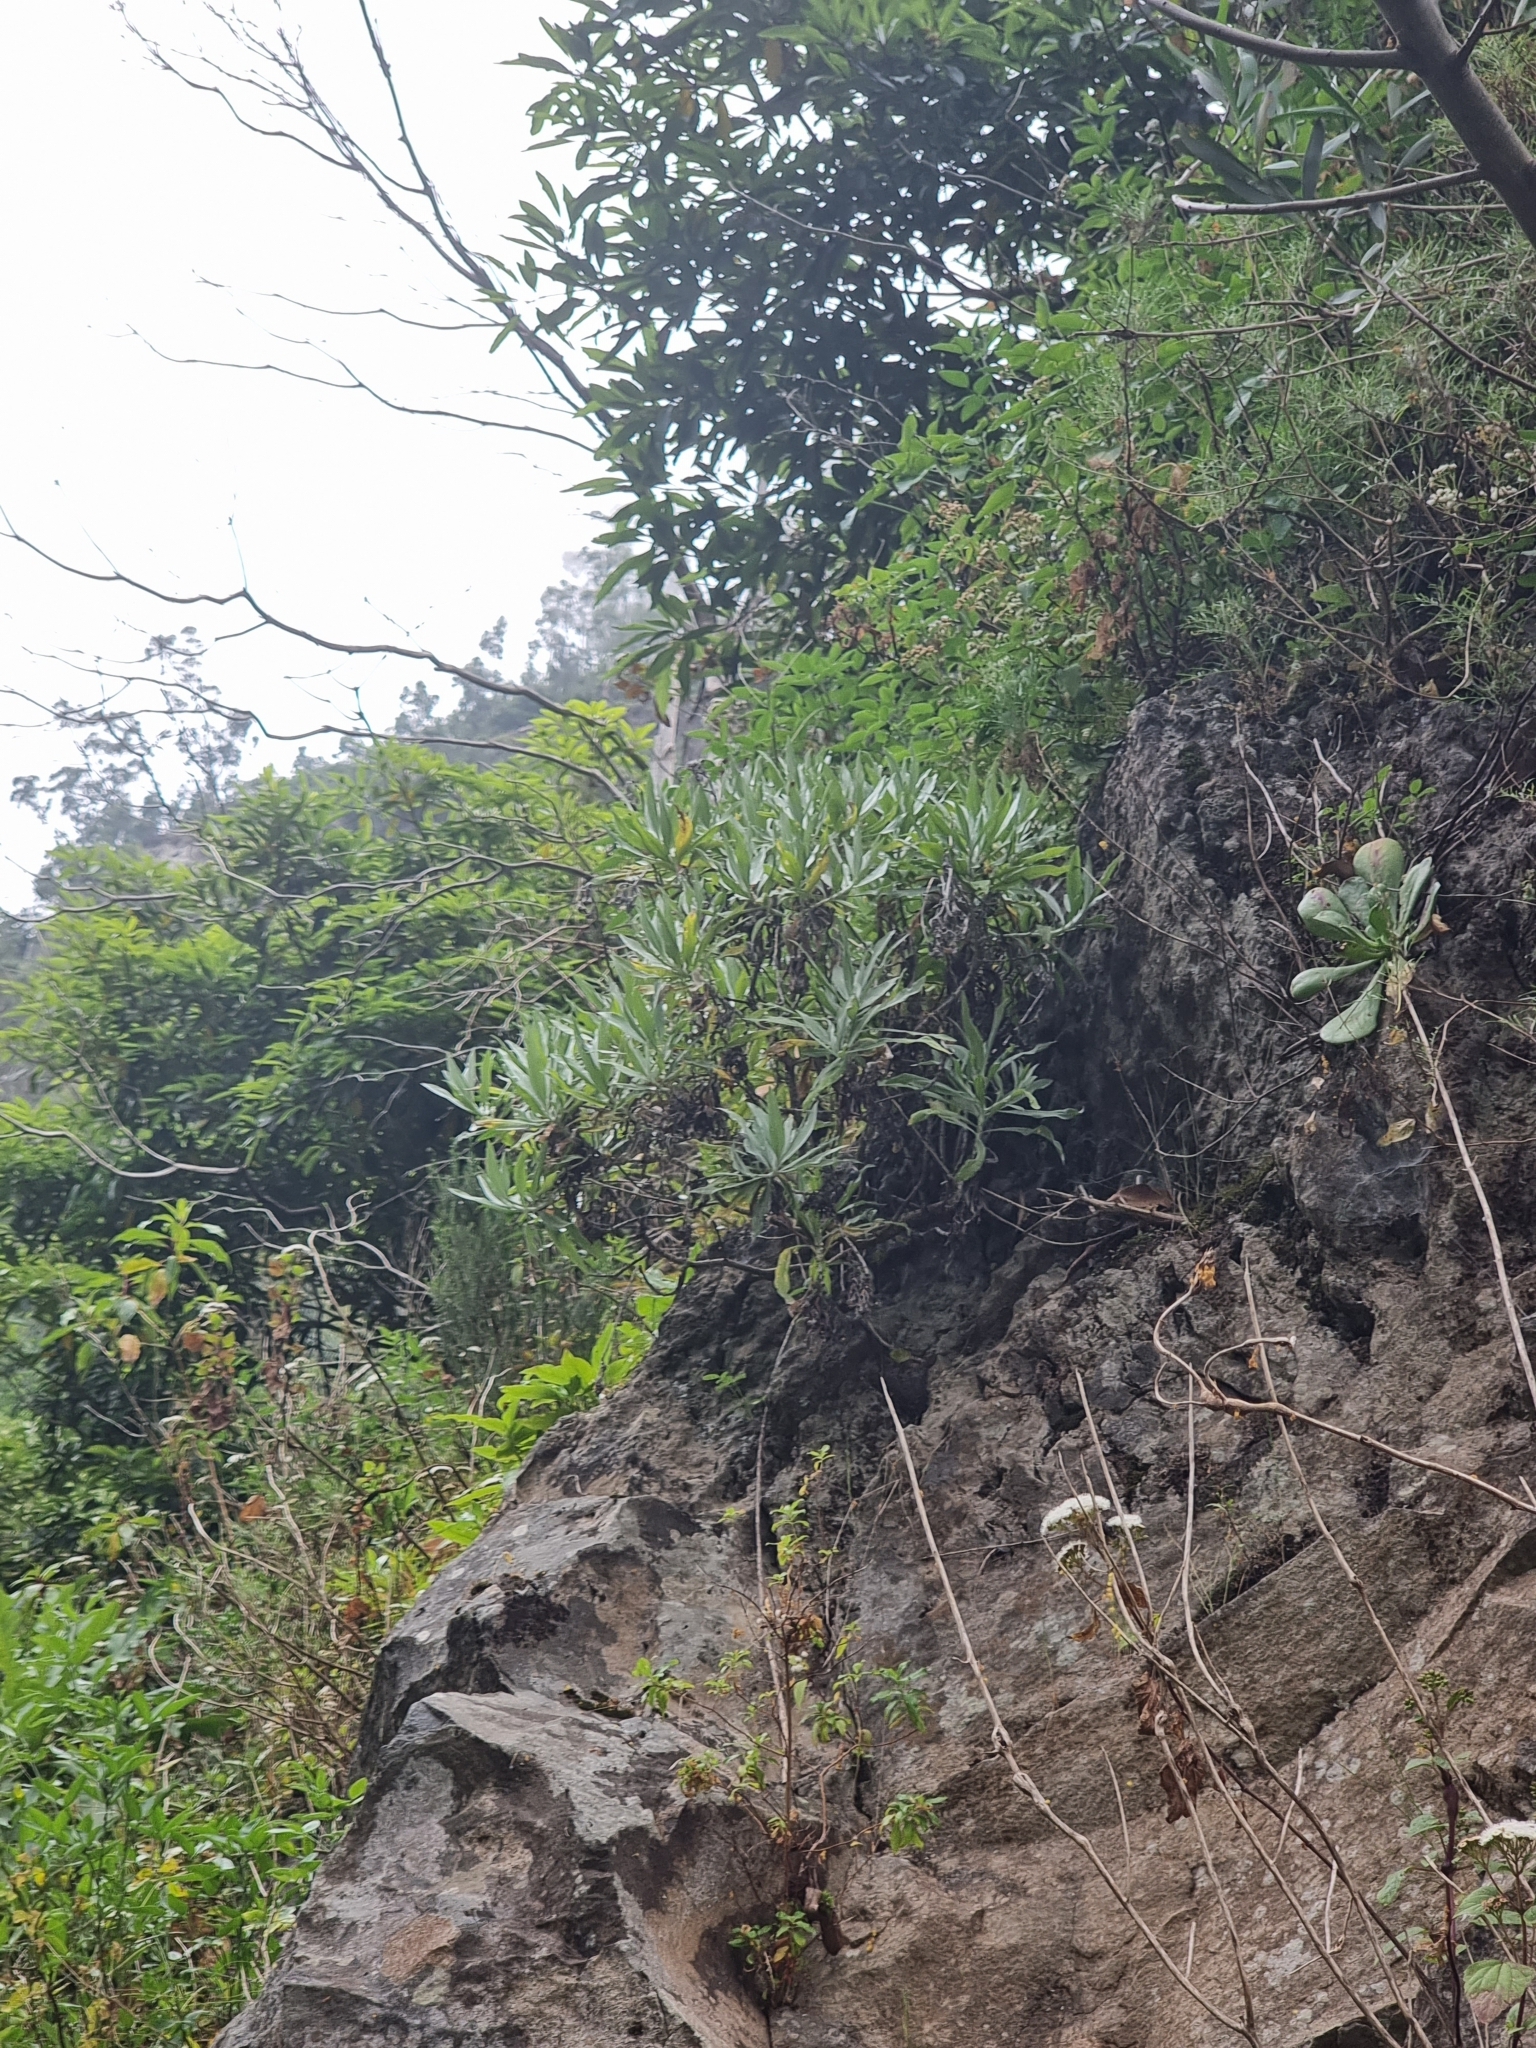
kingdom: Plantae
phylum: Tracheophyta
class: Magnoliopsida
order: Asterales
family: Asteraceae
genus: Helichrysum
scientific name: Helichrysum melaleucum
